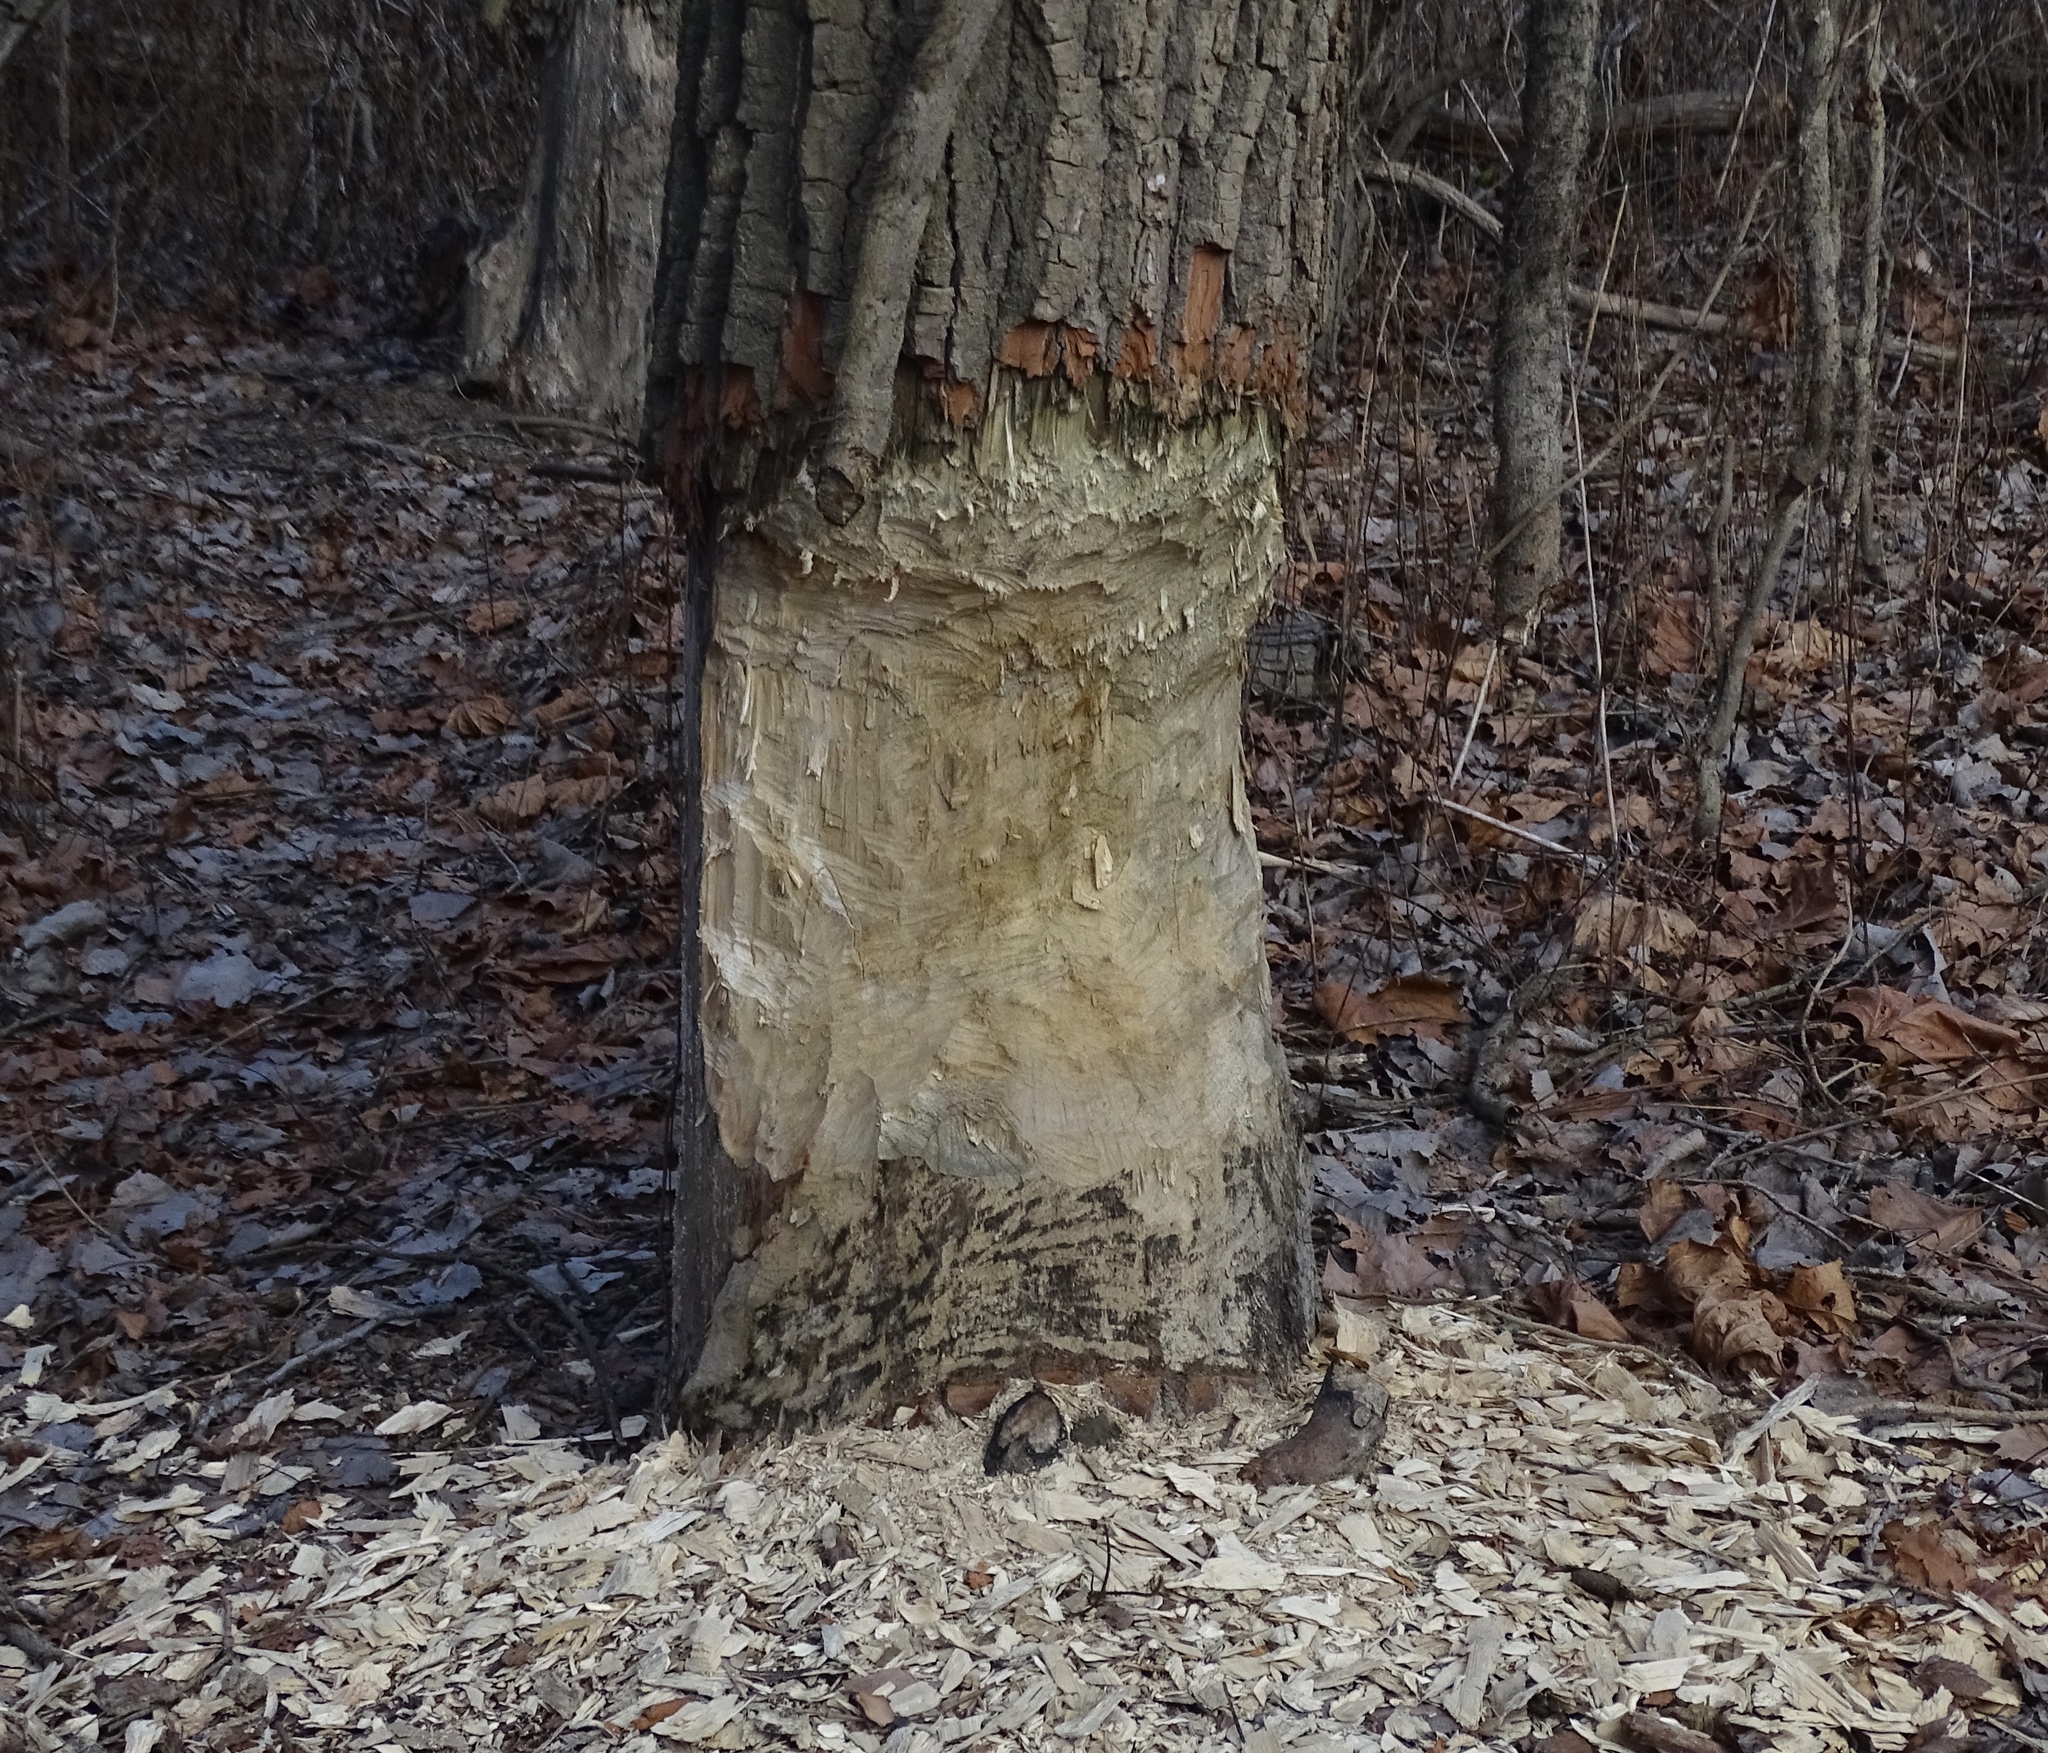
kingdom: Animalia
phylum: Chordata
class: Mammalia
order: Rodentia
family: Castoridae
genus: Castor
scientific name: Castor canadensis
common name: American beaver
